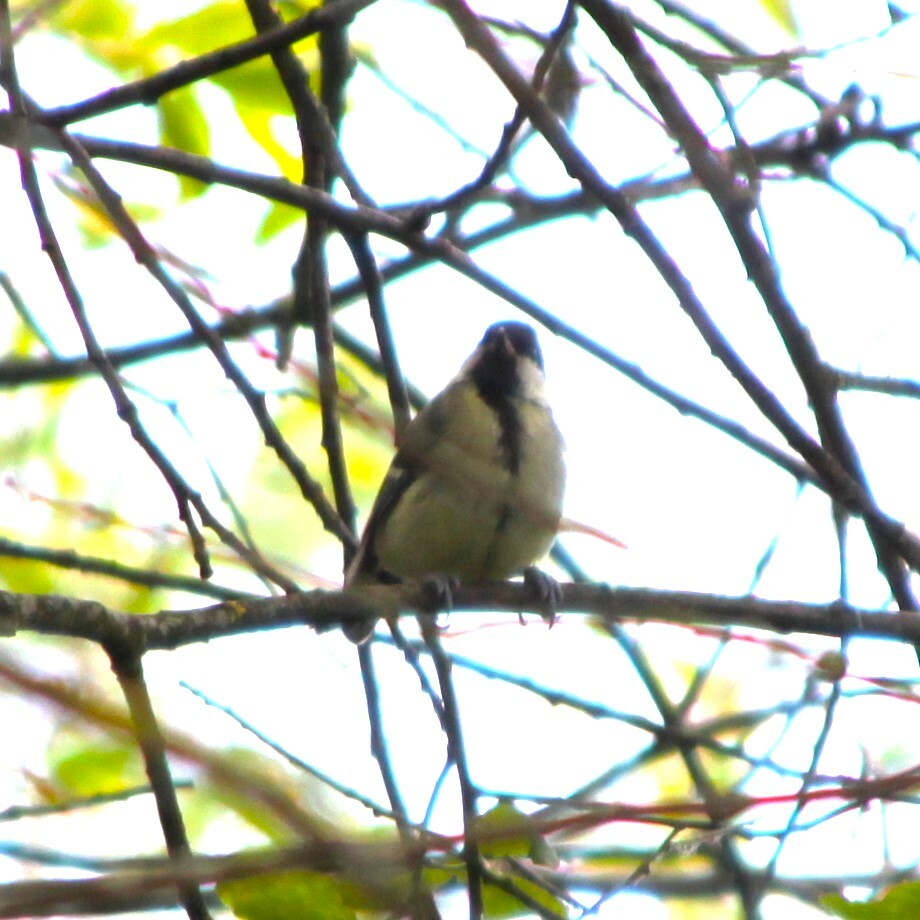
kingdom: Animalia
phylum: Chordata
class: Aves
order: Passeriformes
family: Paridae
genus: Parus
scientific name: Parus major
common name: Great tit
